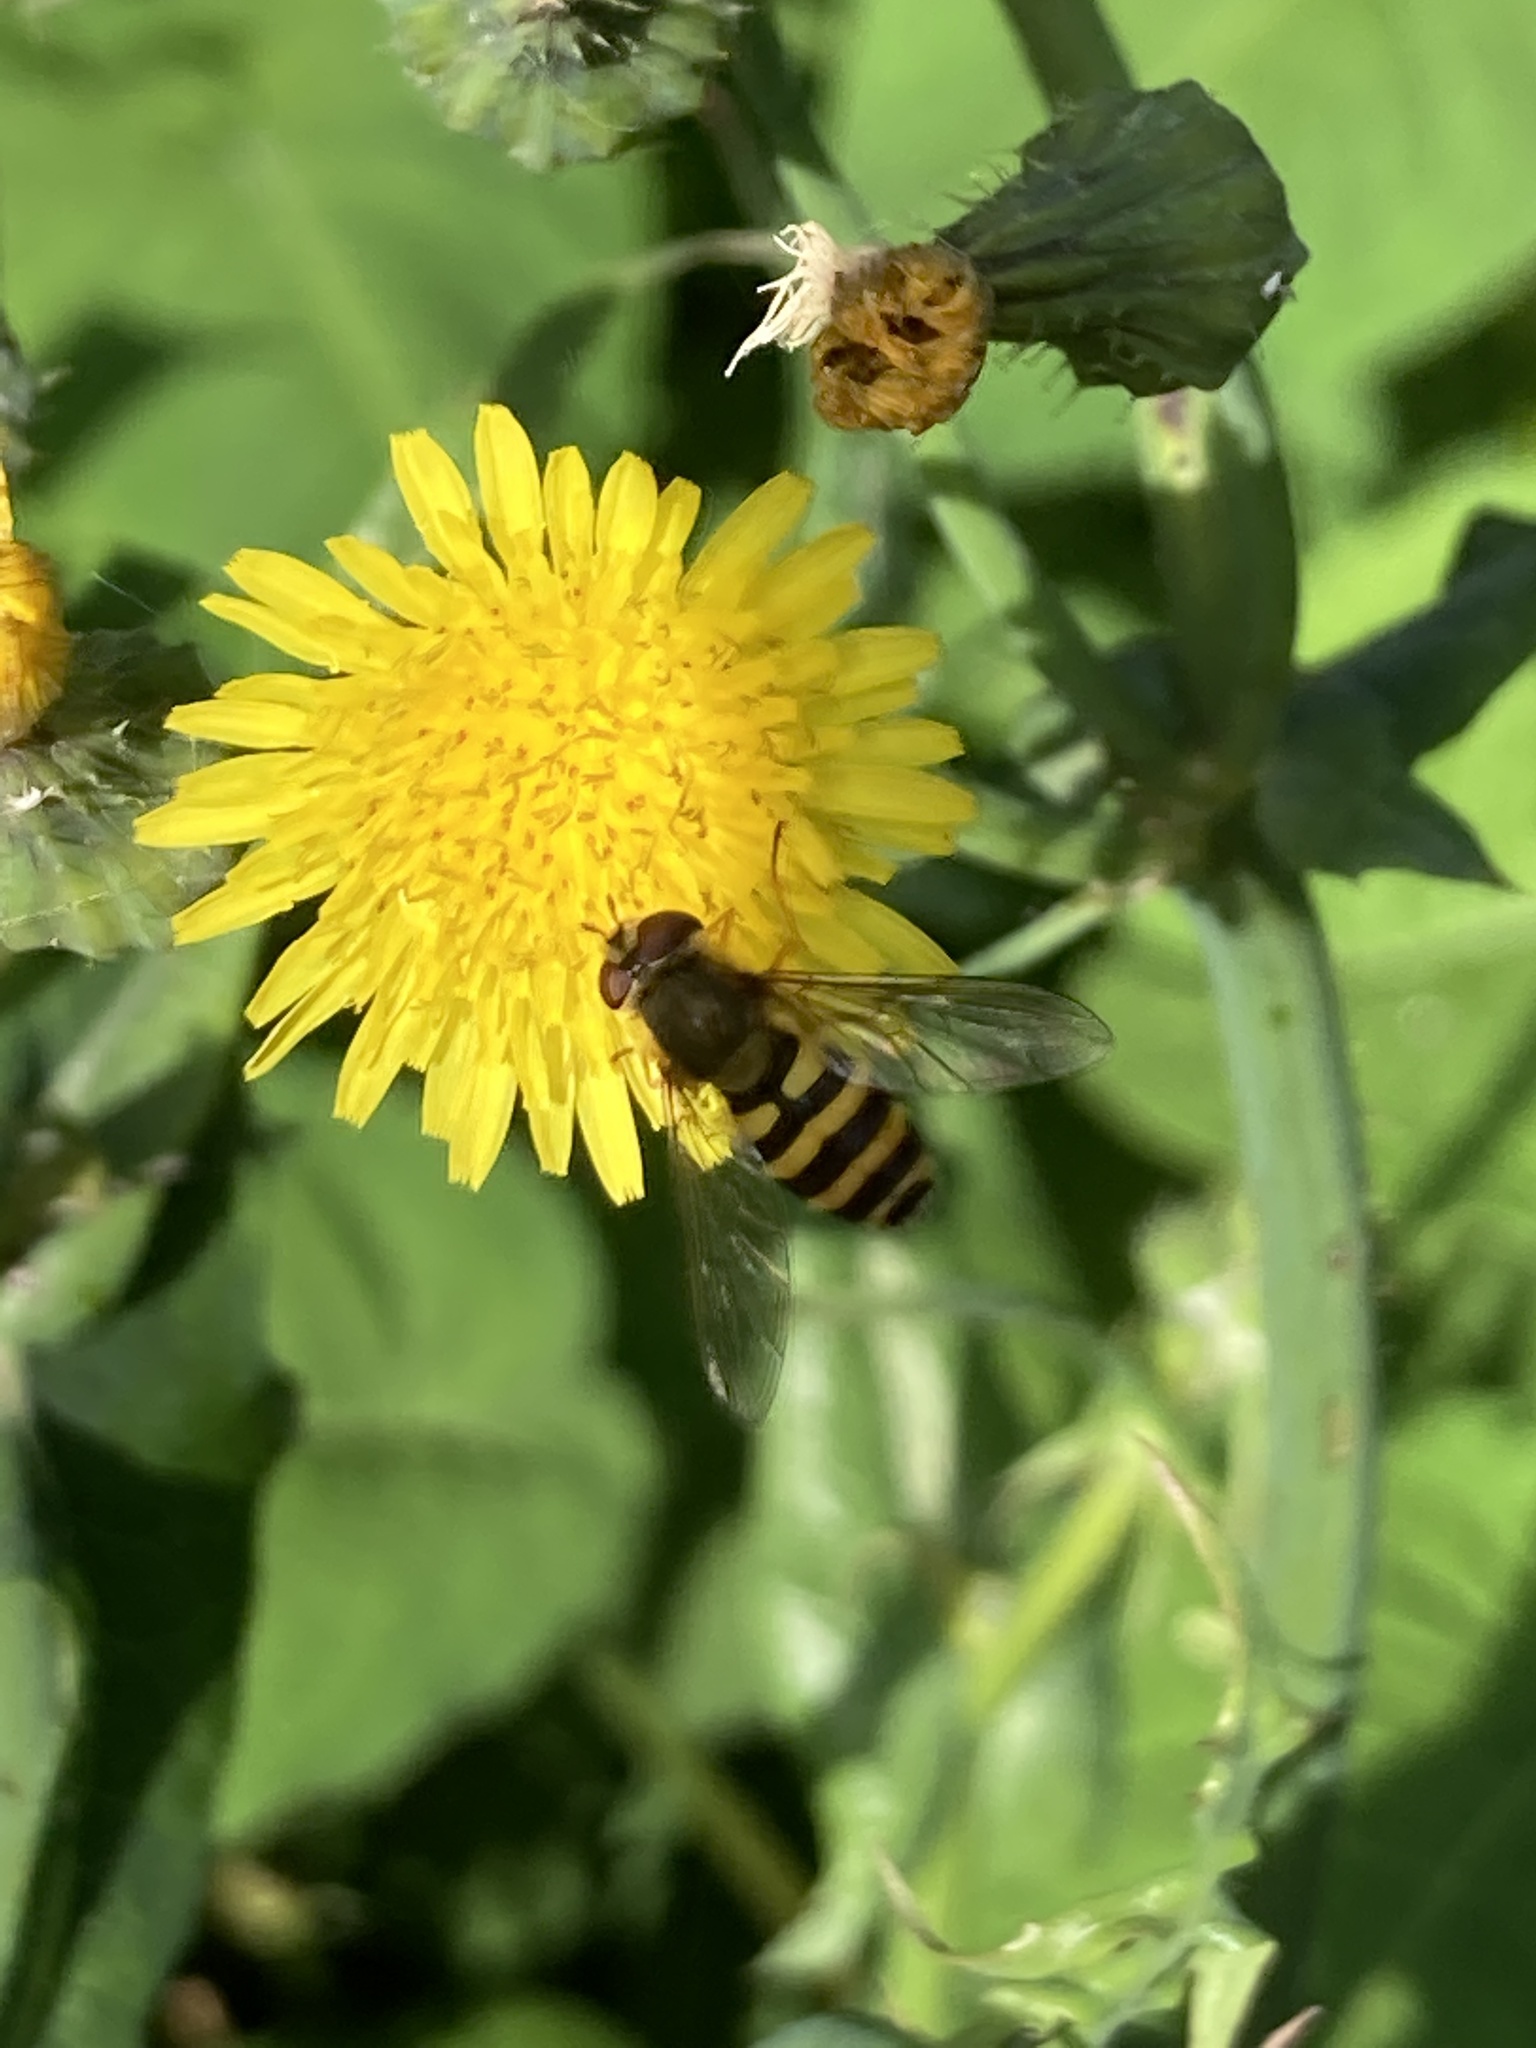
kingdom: Animalia
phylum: Arthropoda
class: Insecta
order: Diptera
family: Syrphidae
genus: Syrphus
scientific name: Syrphus
